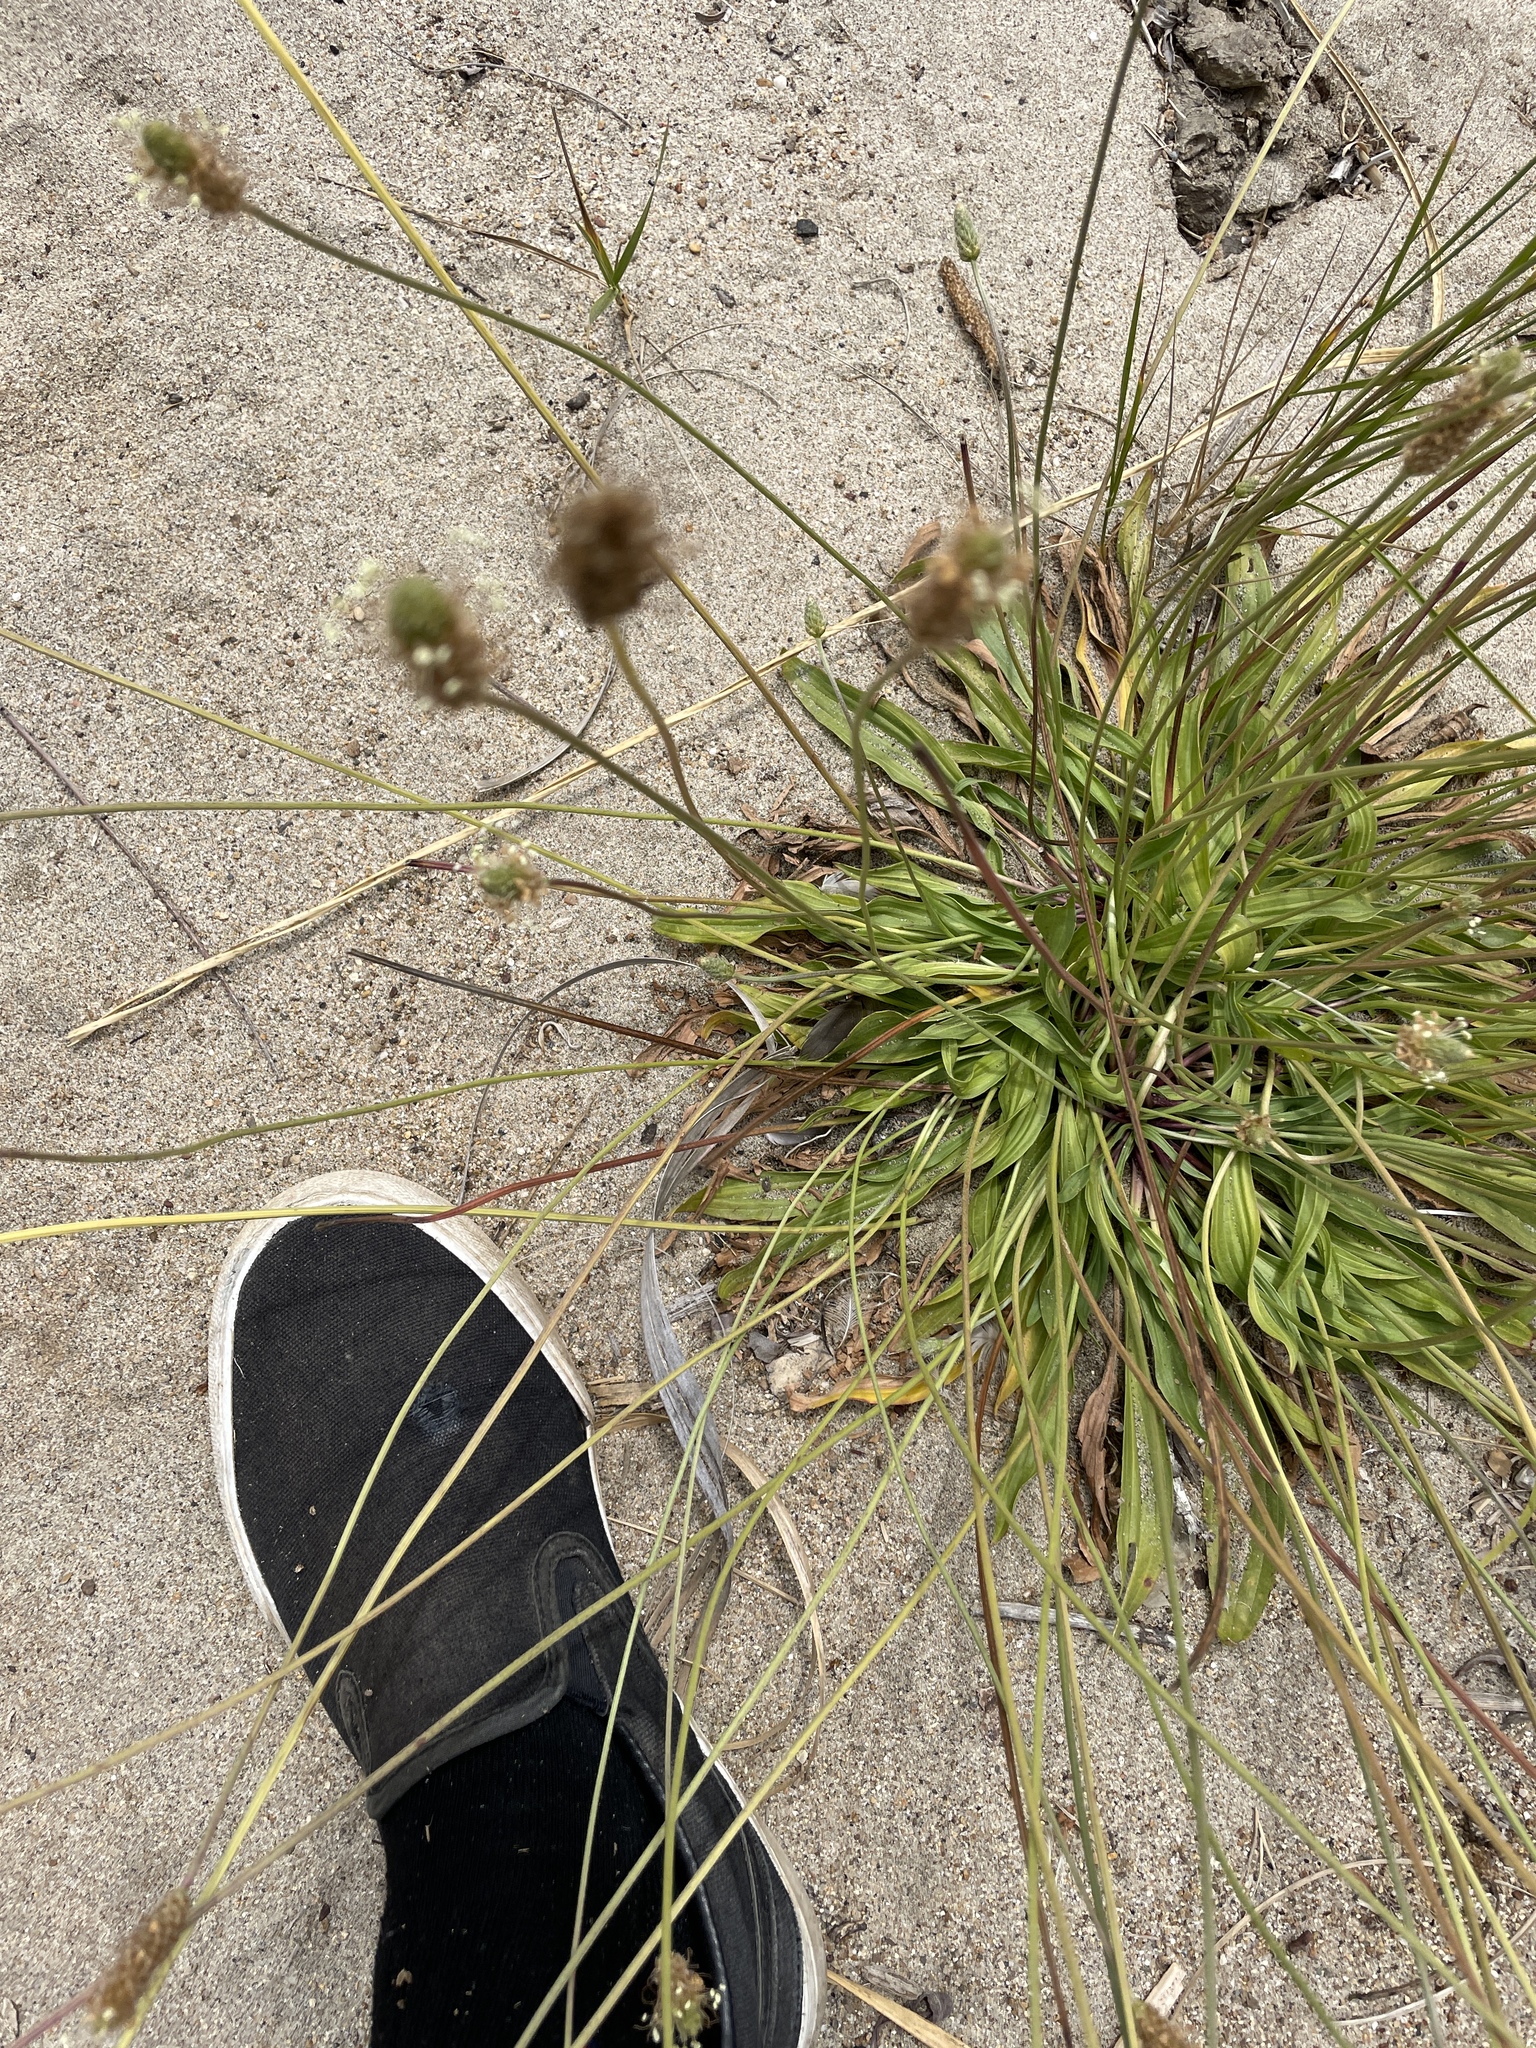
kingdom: Plantae
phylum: Tracheophyta
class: Magnoliopsida
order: Lamiales
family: Plantaginaceae
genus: Plantago
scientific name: Plantago lanceolata
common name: Ribwort plantain
